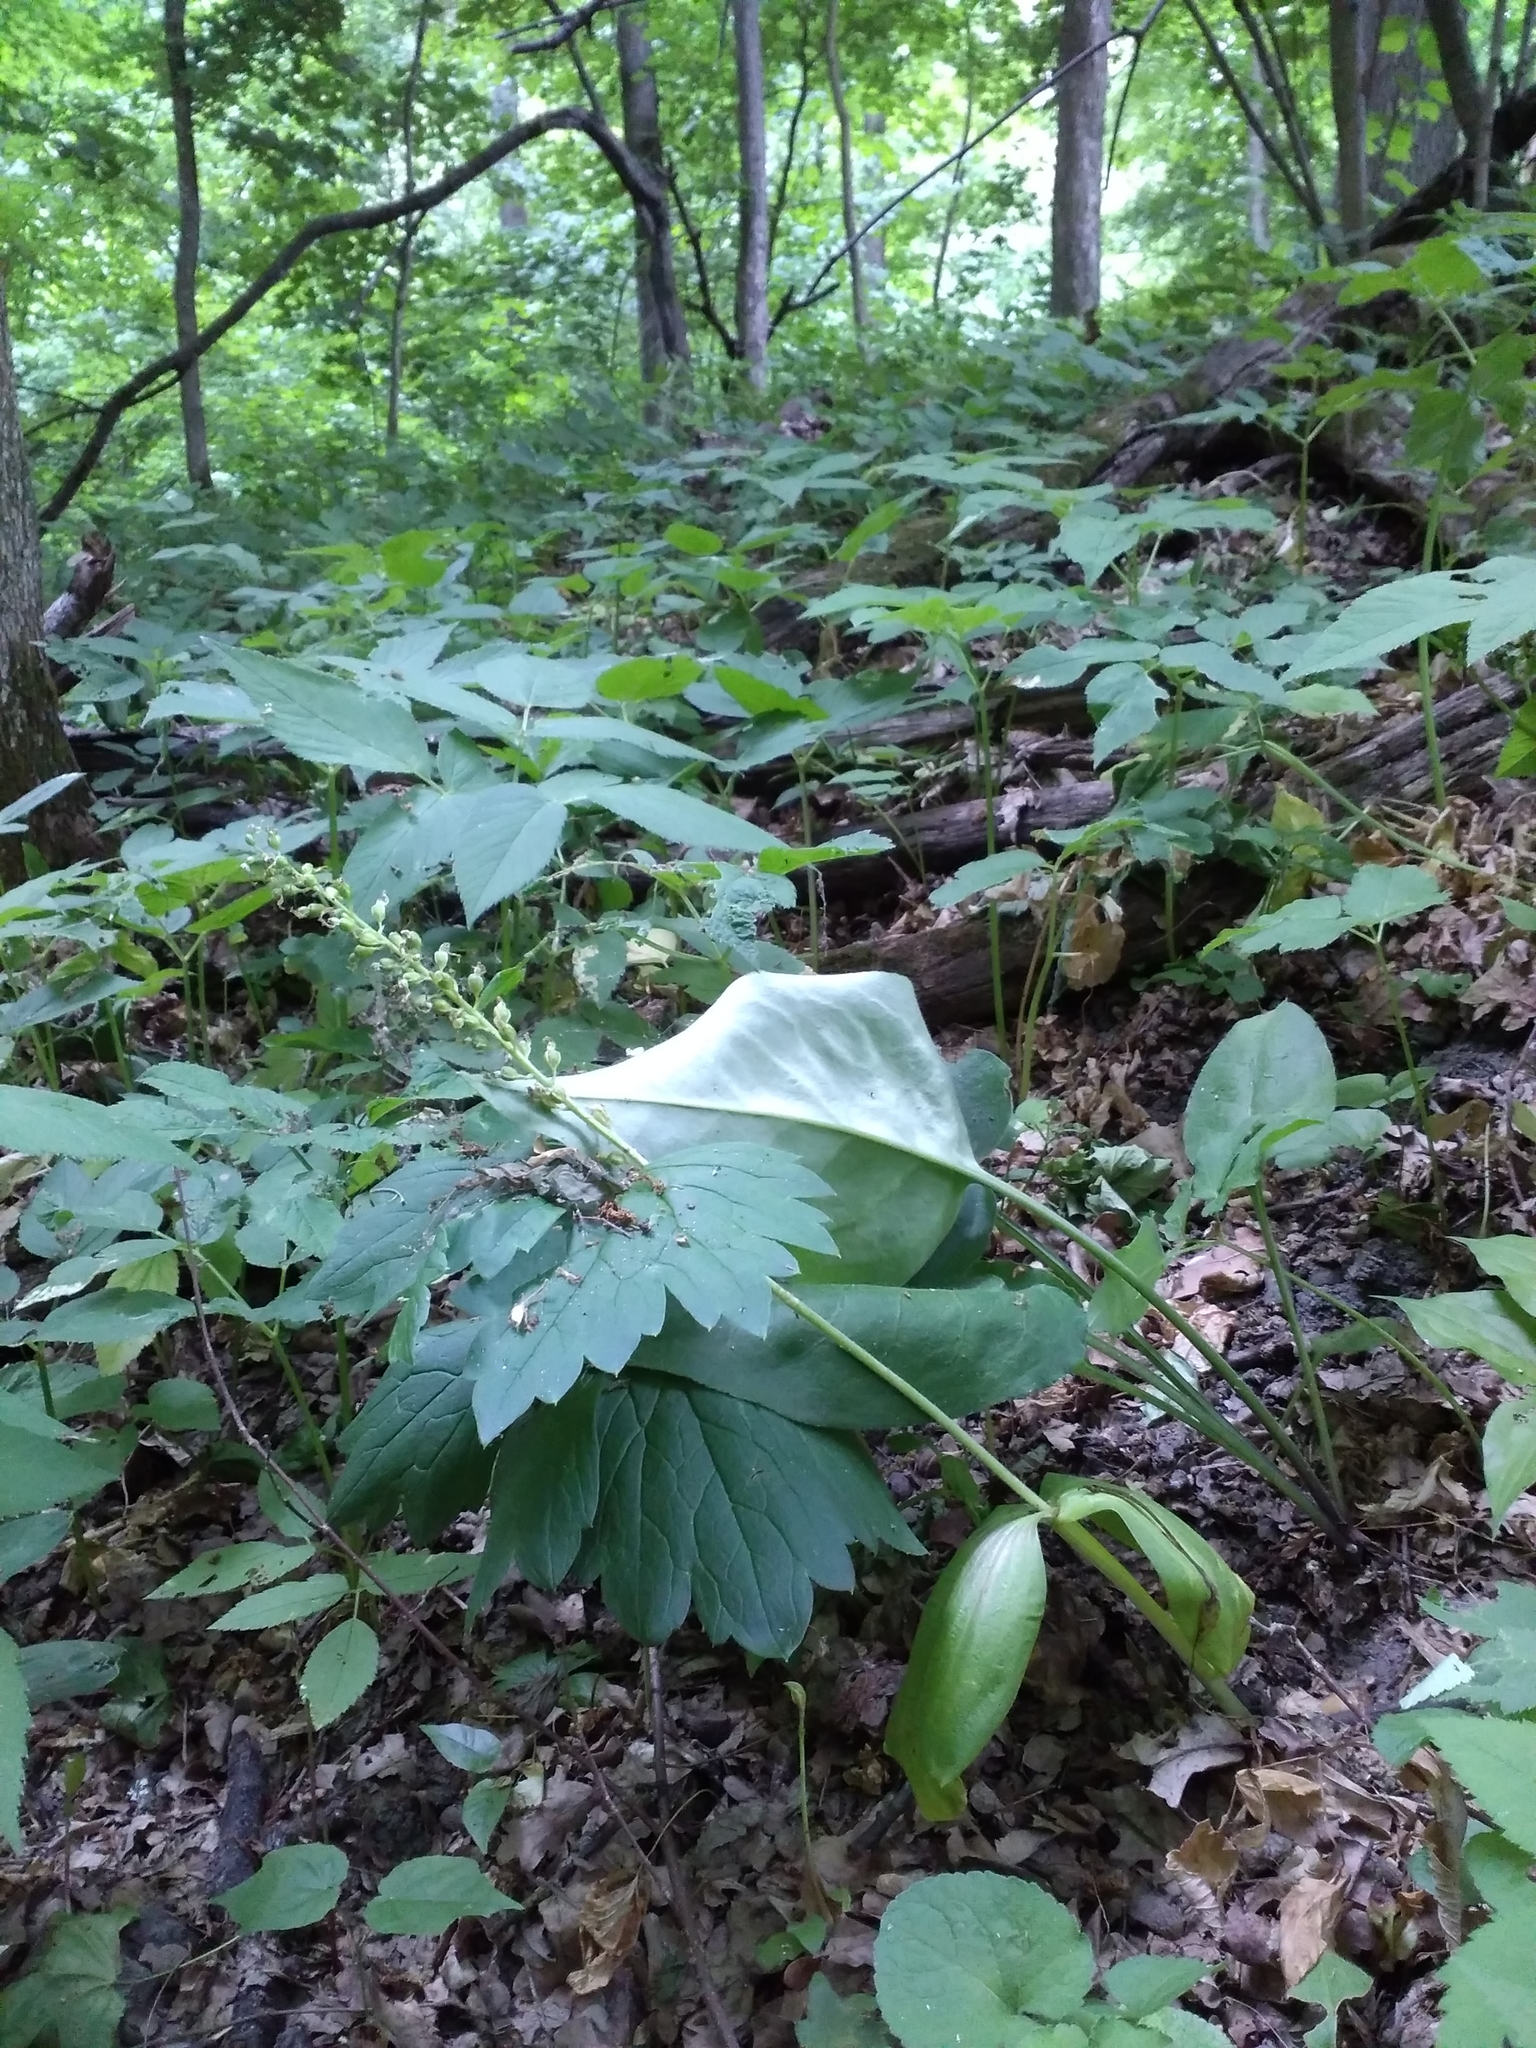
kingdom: Plantae
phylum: Tracheophyta
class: Liliopsida
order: Asparagales
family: Orchidaceae
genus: Neottia
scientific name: Neottia ovata
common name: Common twayblade
